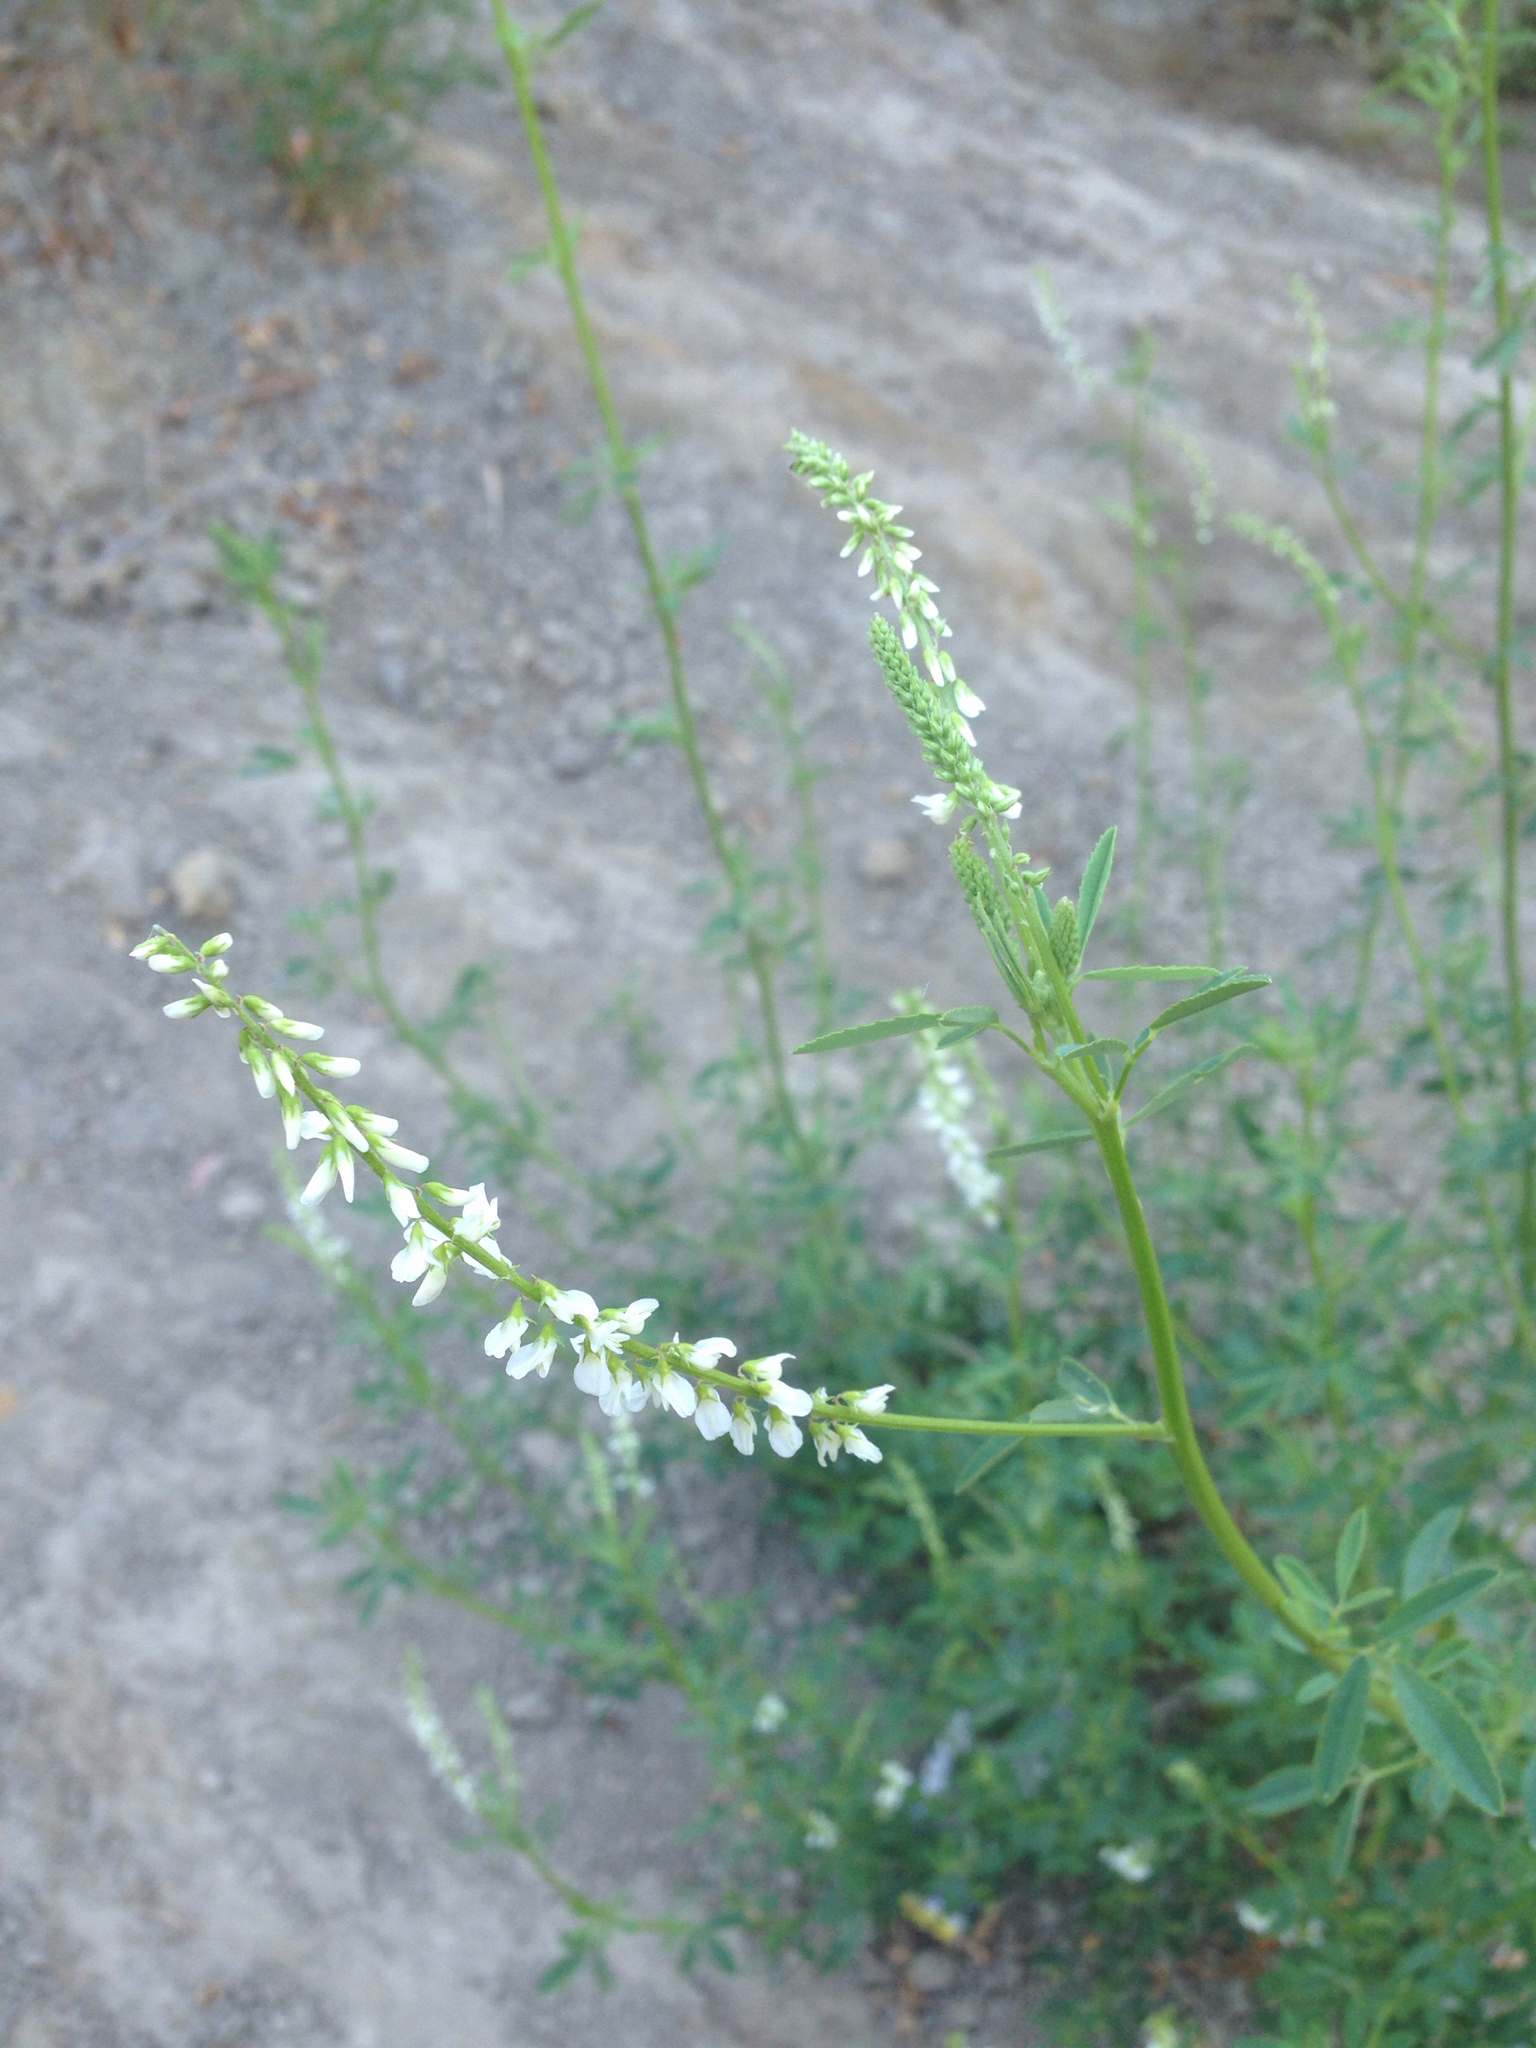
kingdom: Plantae
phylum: Tracheophyta
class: Magnoliopsida
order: Fabales
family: Fabaceae
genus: Melilotus
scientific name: Melilotus albus
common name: White melilot
